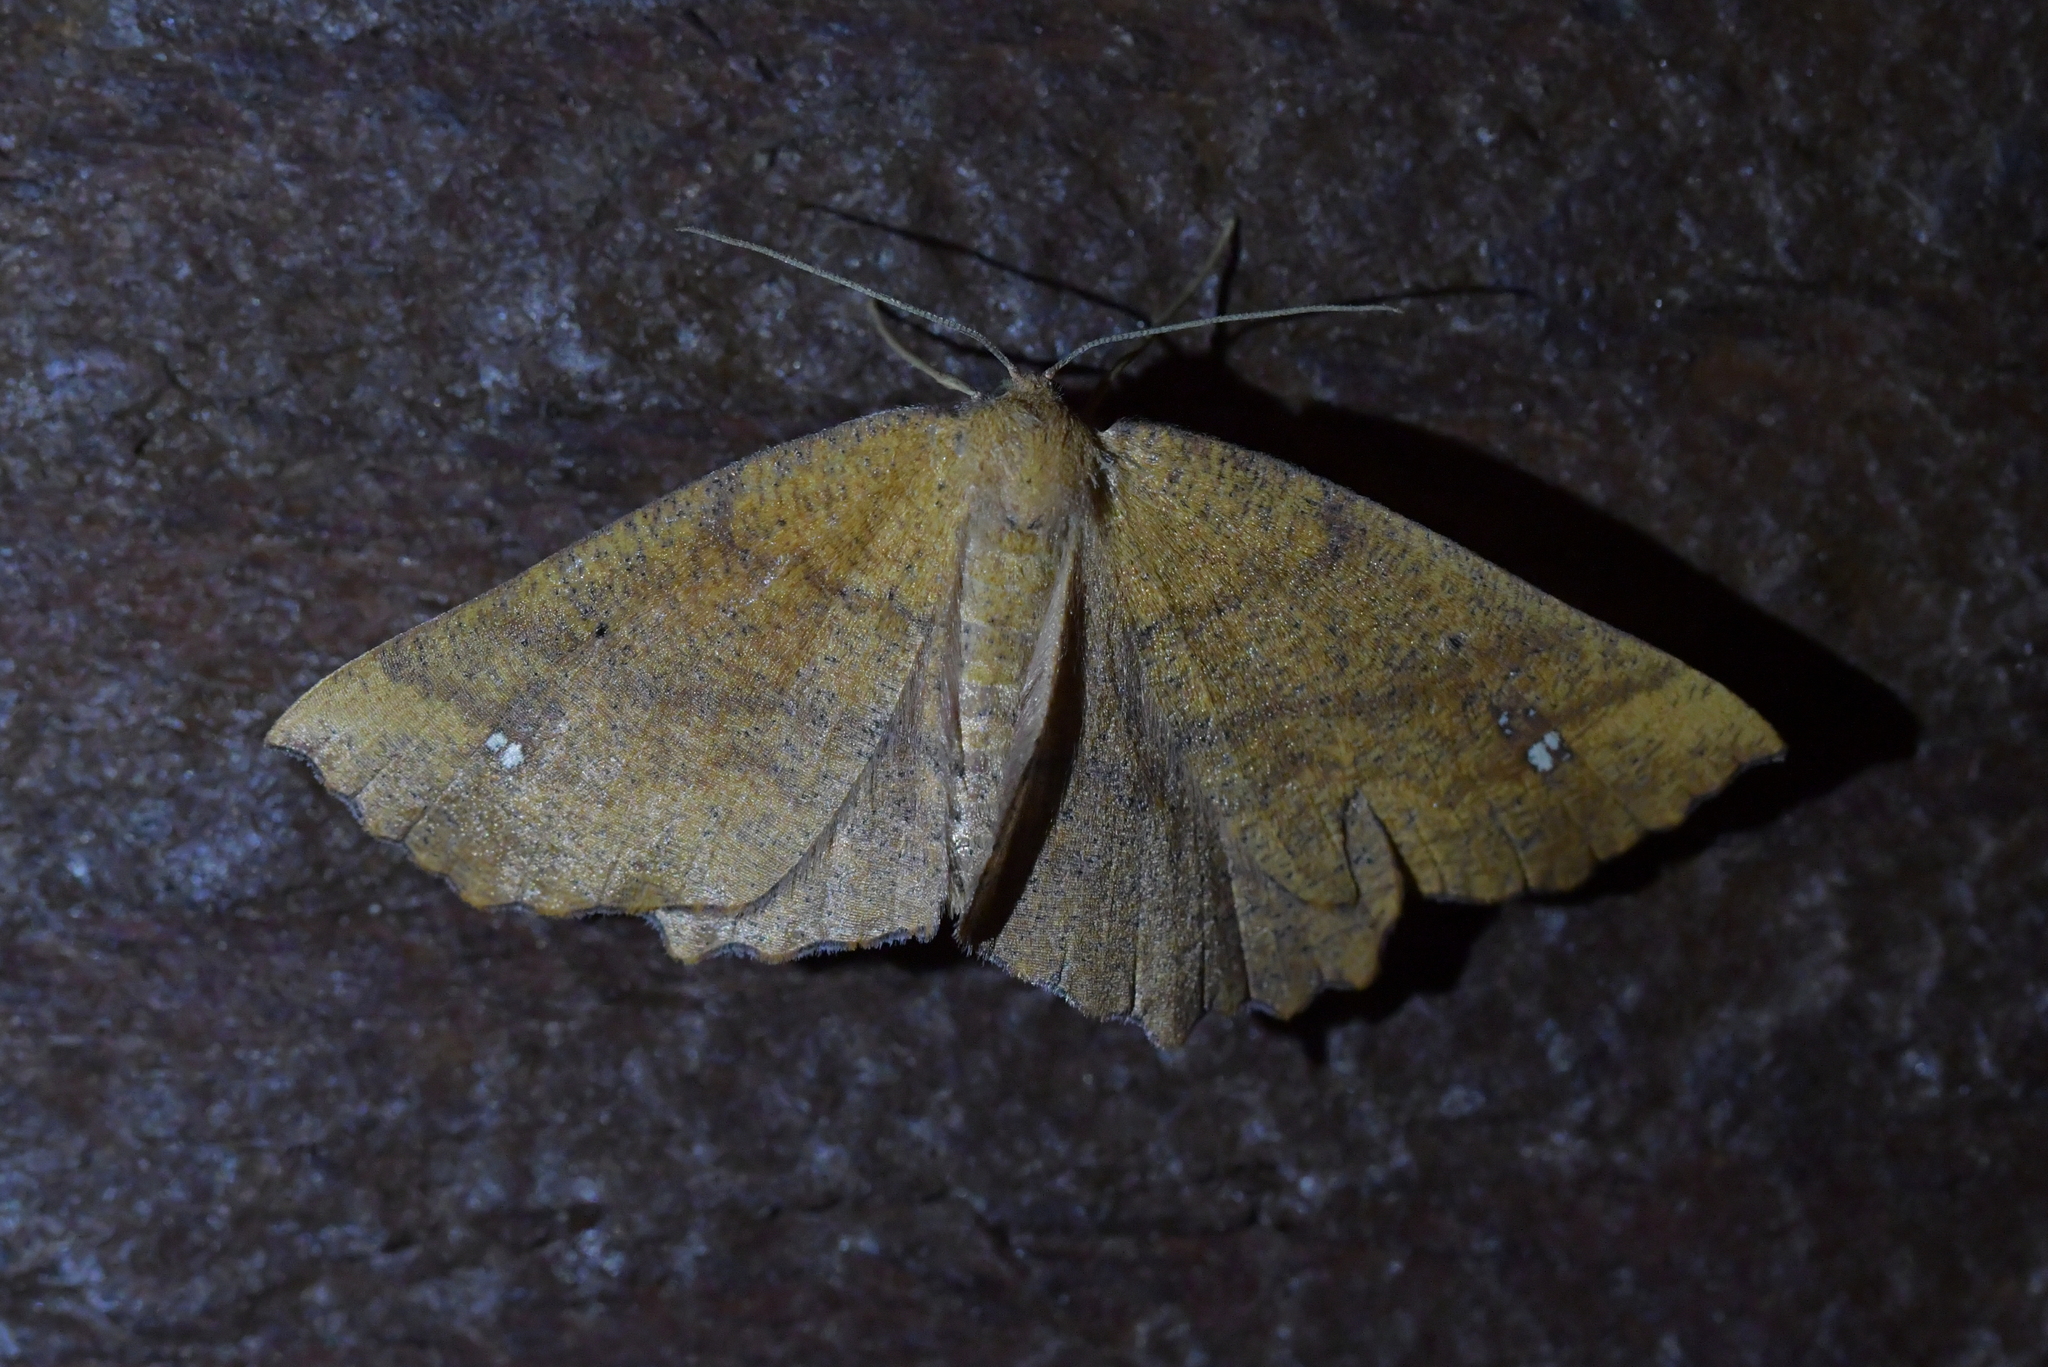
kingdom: Animalia
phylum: Arthropoda
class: Insecta
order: Lepidoptera
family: Geometridae
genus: Xyridacma
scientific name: Xyridacma ustaria
